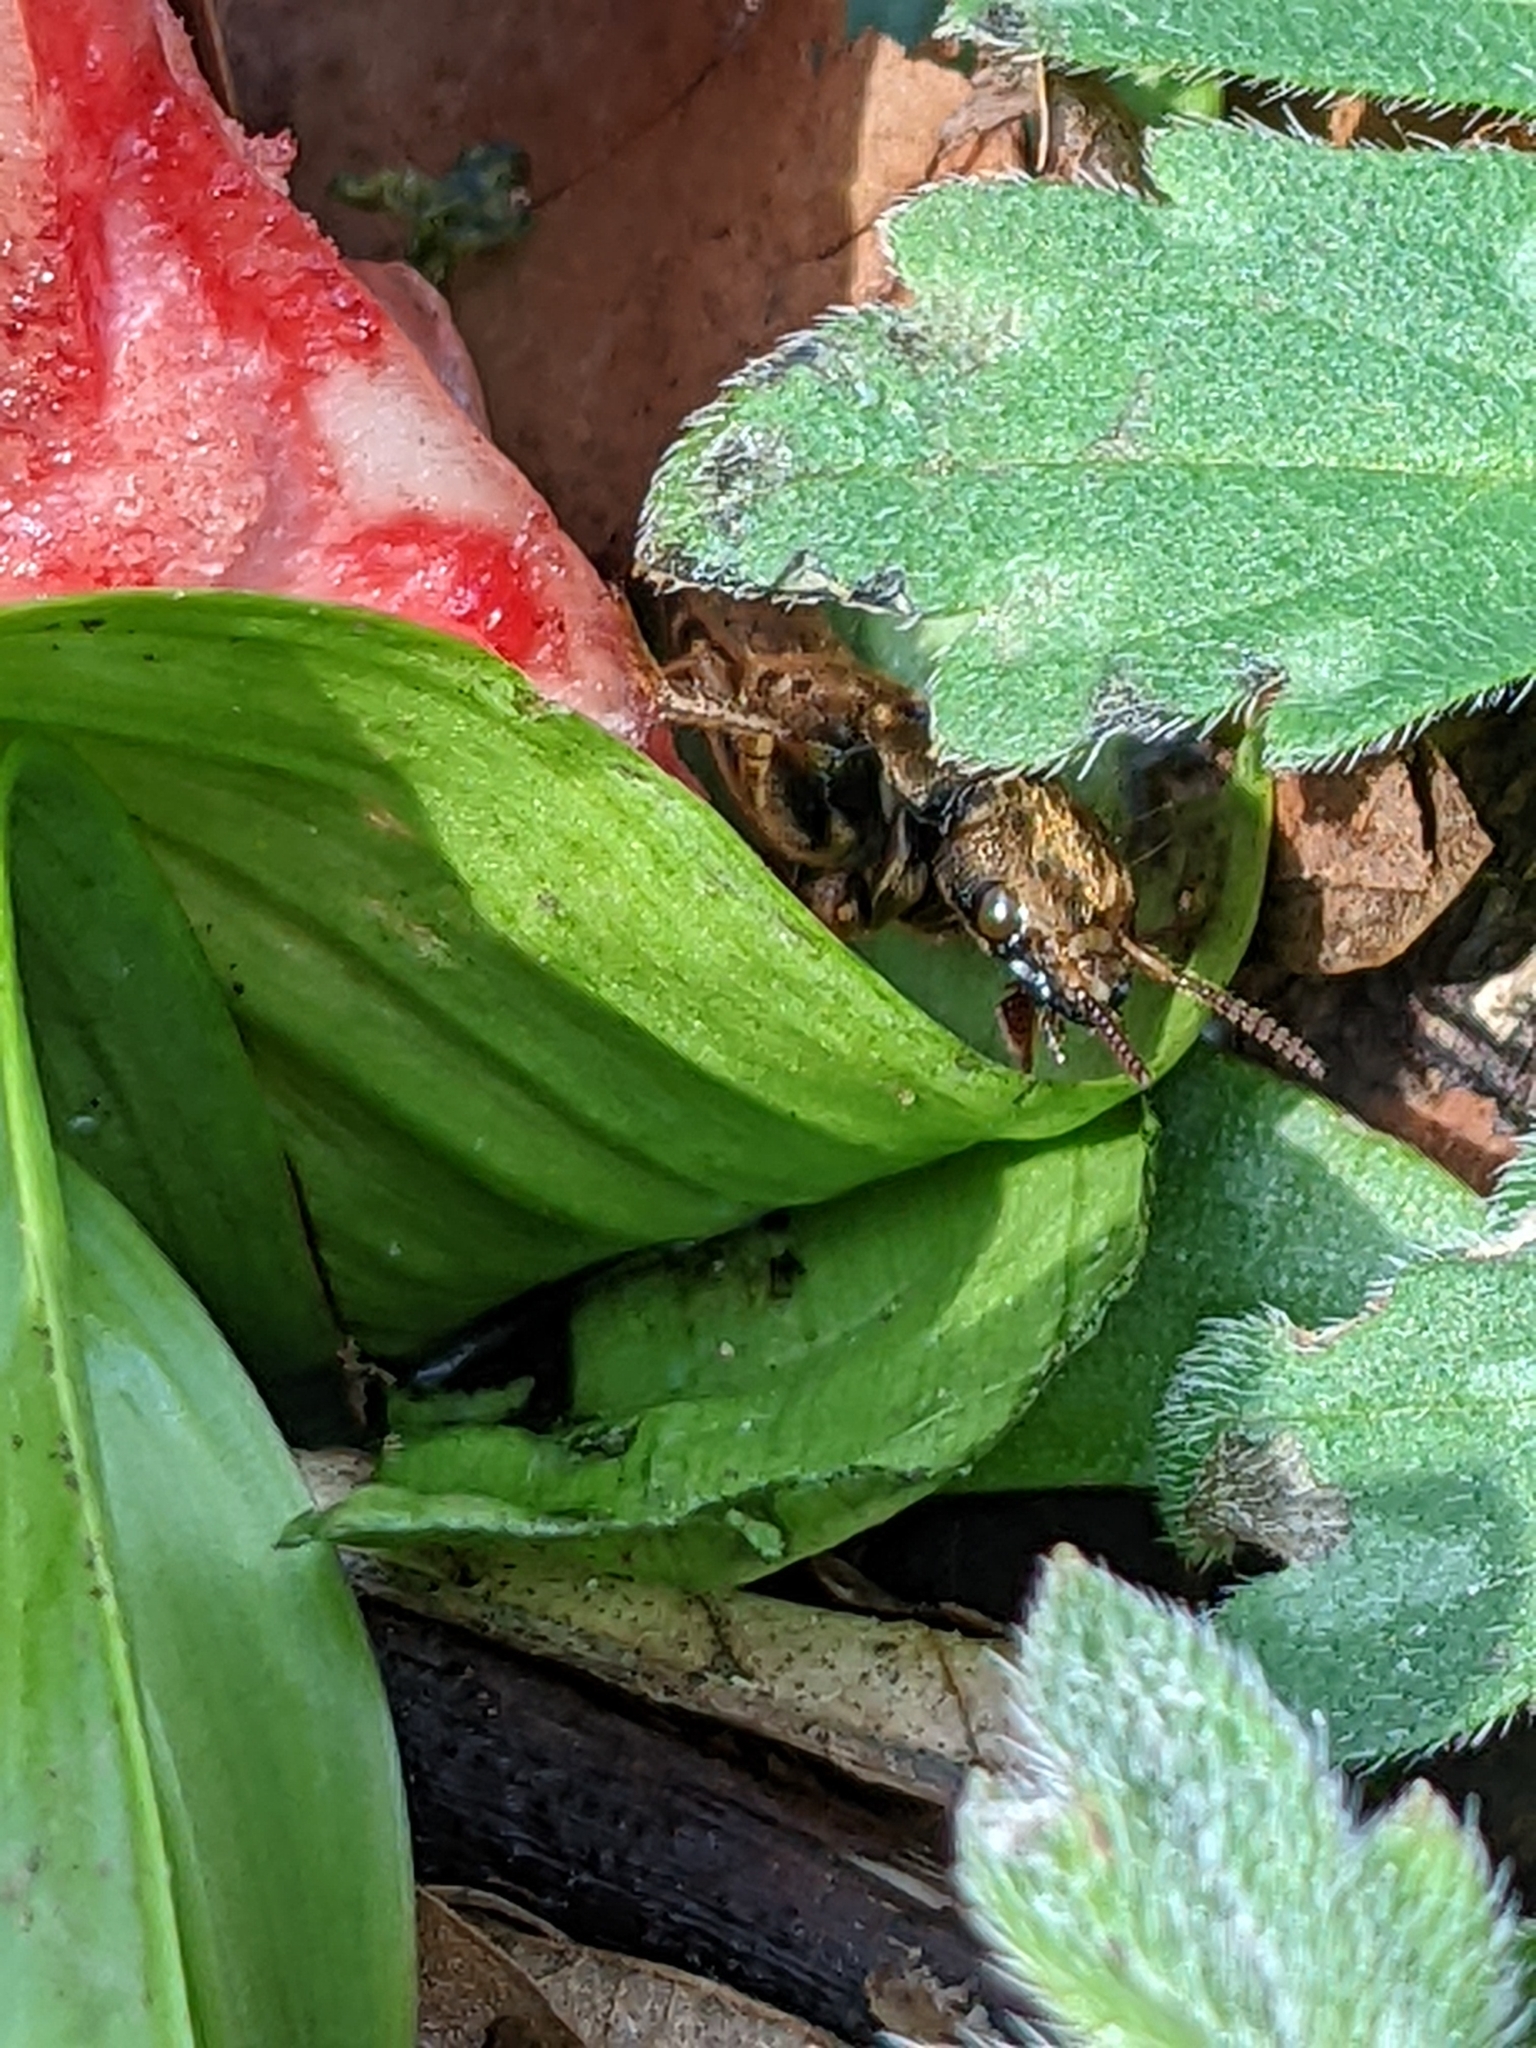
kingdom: Animalia
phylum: Arthropoda
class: Insecta
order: Coleoptera
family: Staphylinidae
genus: Platydracus
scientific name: Platydracus maculosus
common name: Brown rove beetle
